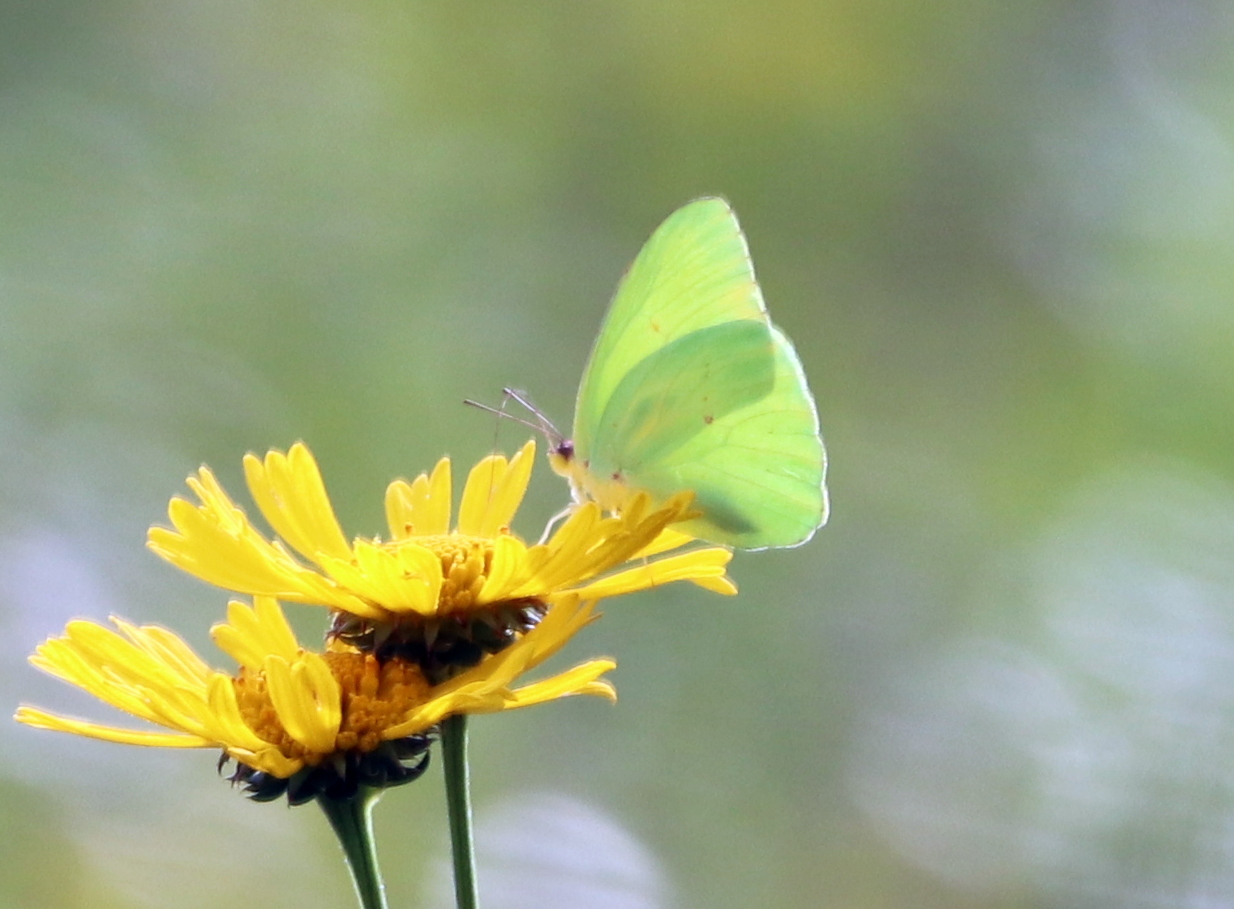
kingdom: Animalia
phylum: Arthropoda
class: Insecta
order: Lepidoptera
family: Pieridae
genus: Phoebis
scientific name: Phoebis sennae
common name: Cloudless sulphur
